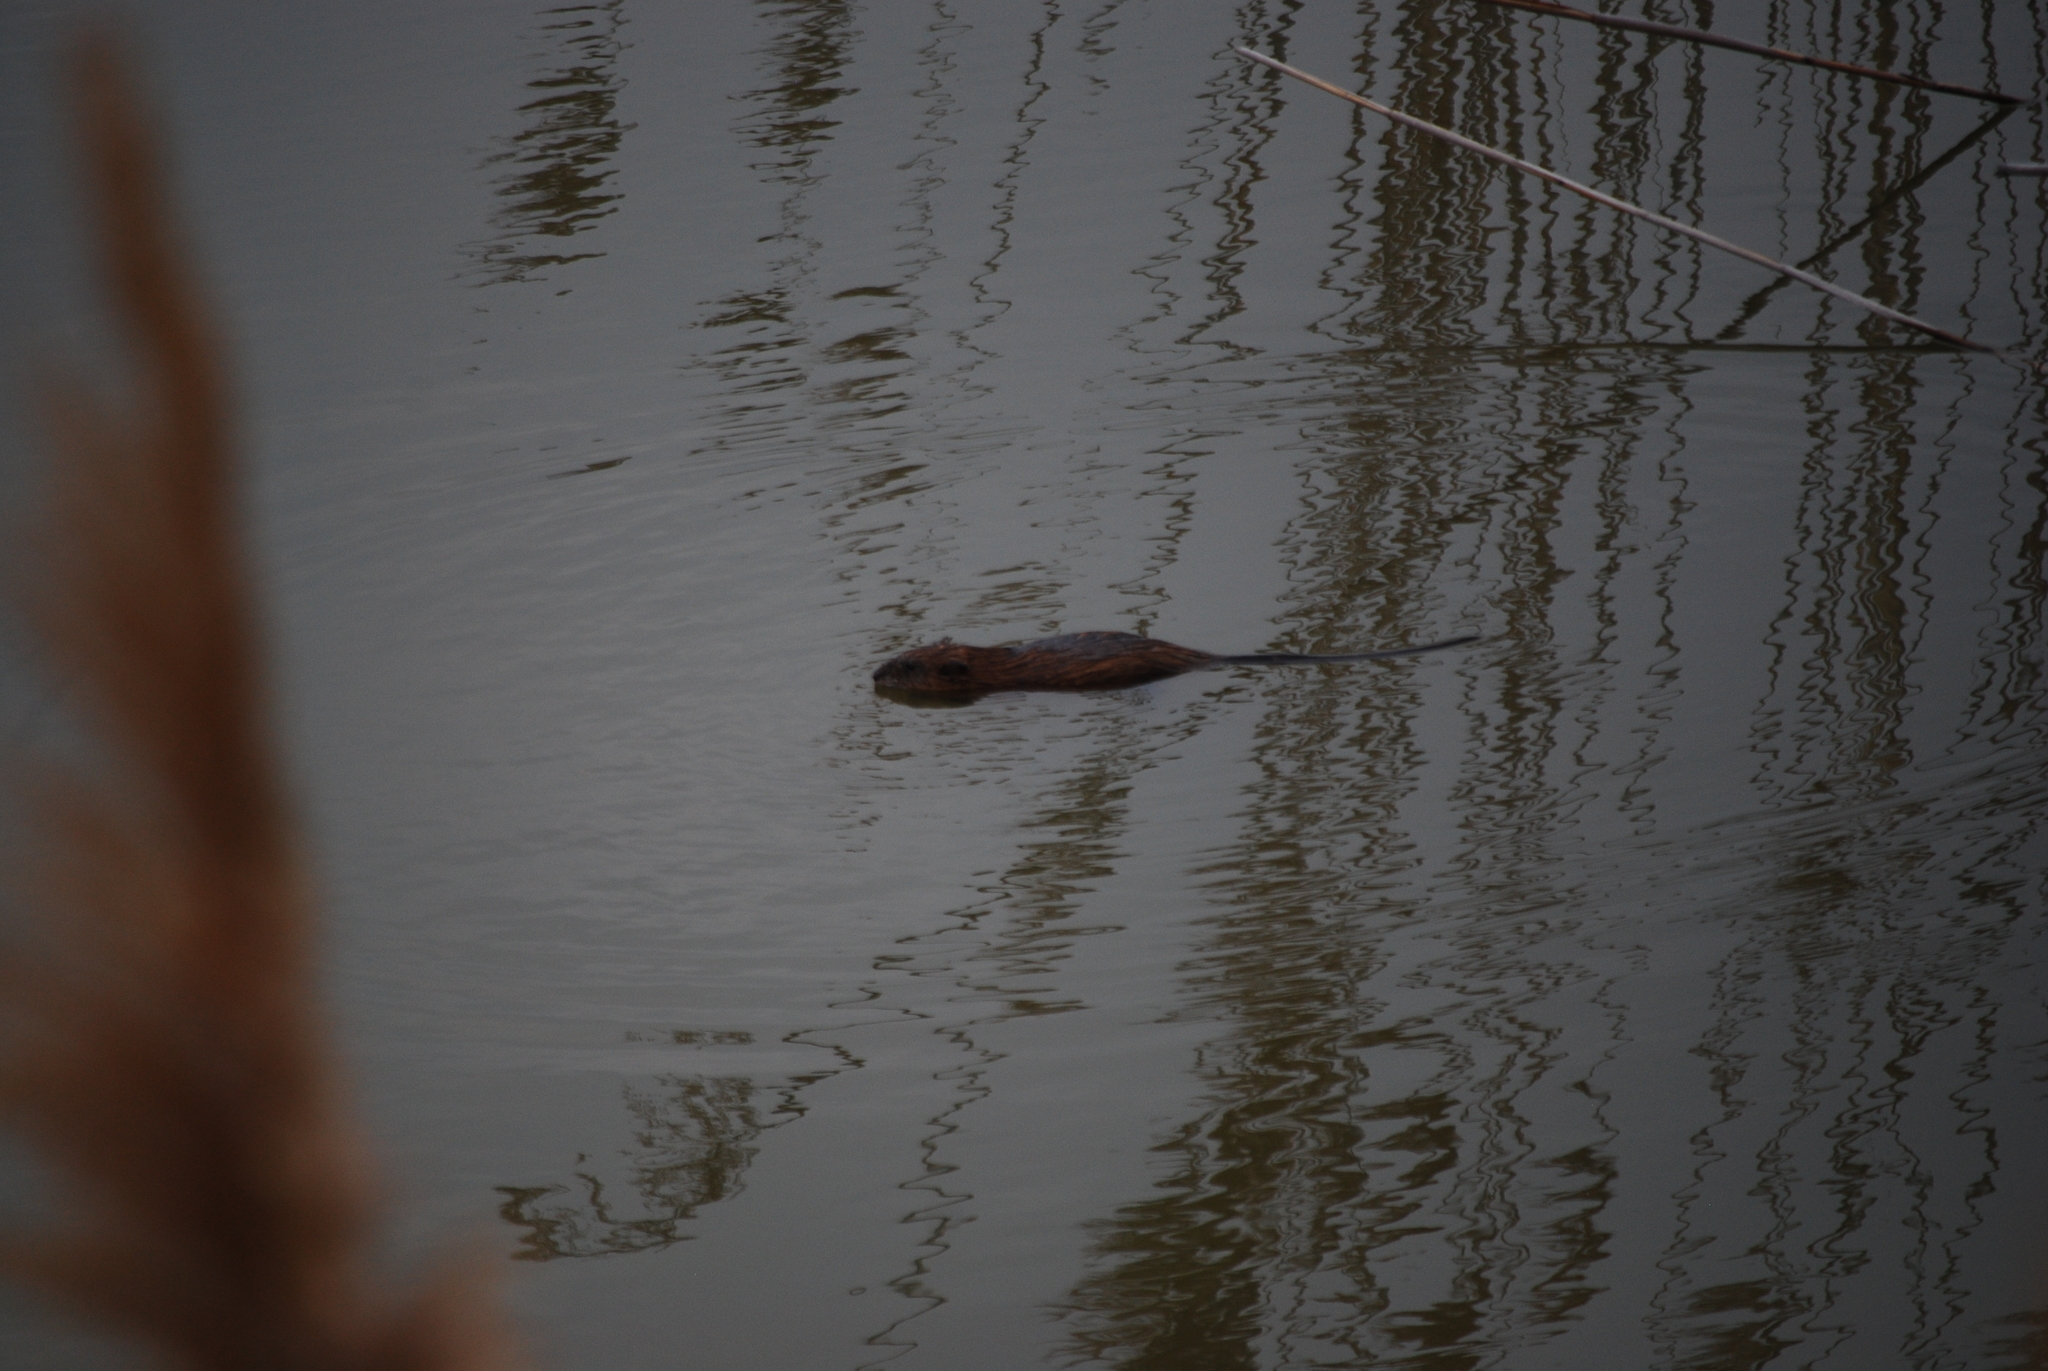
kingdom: Animalia
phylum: Chordata
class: Mammalia
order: Rodentia
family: Cricetidae
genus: Ondatra
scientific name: Ondatra zibethicus
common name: Muskrat
